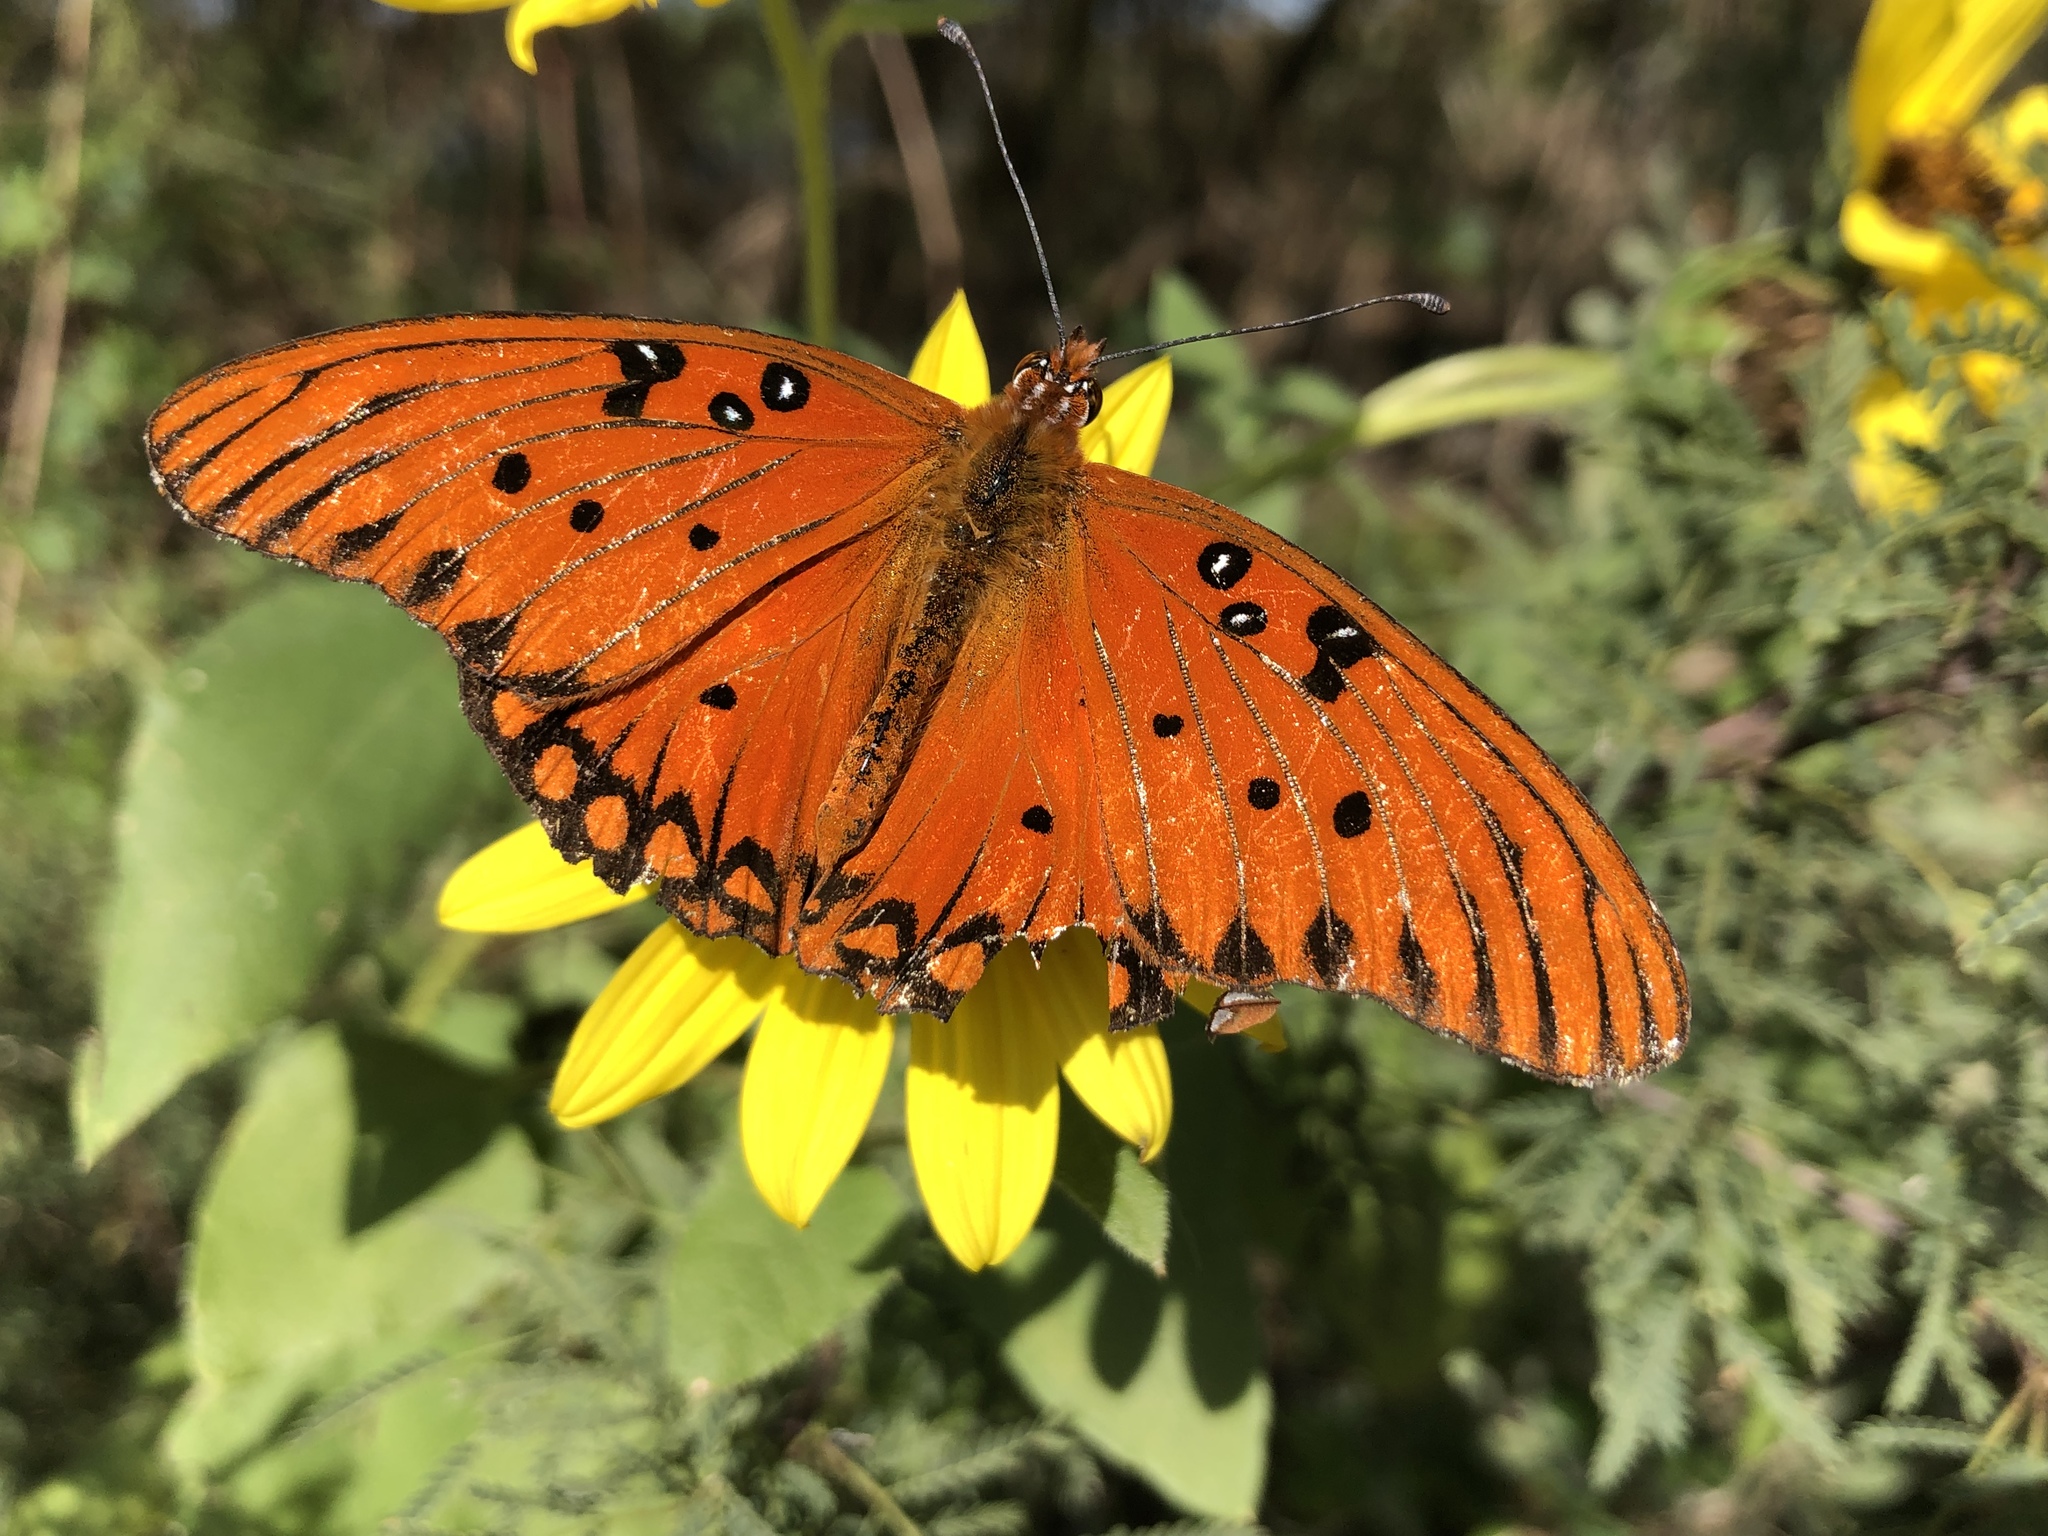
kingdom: Animalia
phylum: Arthropoda
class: Insecta
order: Lepidoptera
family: Nymphalidae
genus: Dione
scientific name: Dione vanillae
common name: Gulf fritillary
